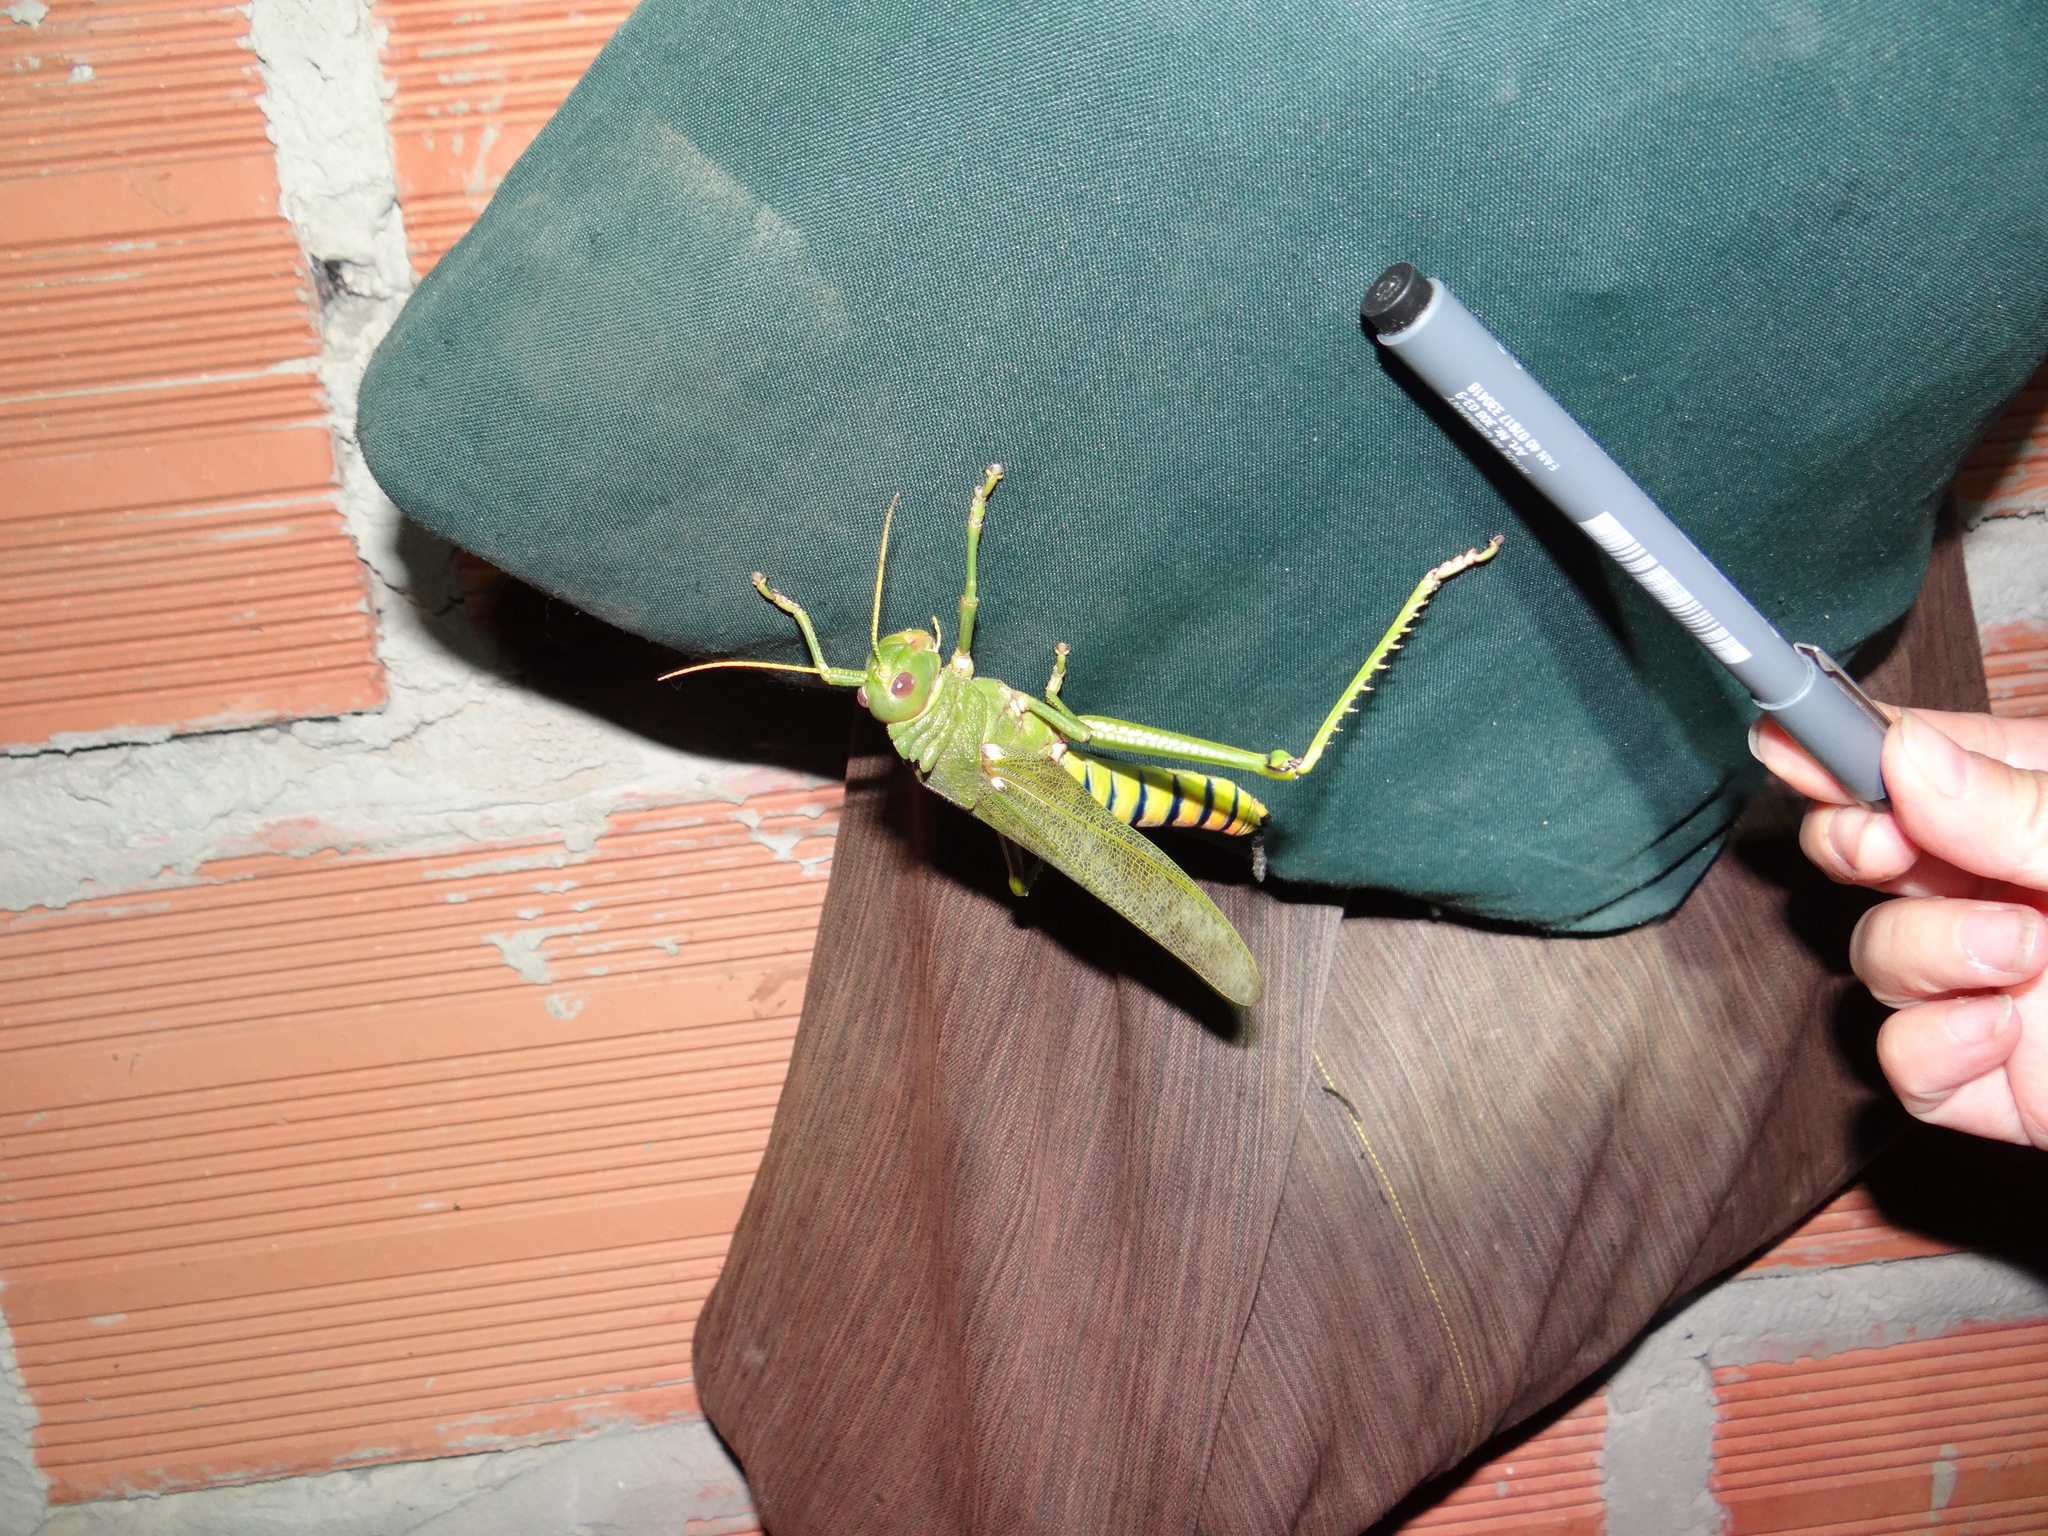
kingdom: Animalia
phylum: Arthropoda
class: Insecta
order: Orthoptera
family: Romaleidae
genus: Tropidacris
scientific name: Tropidacris collaris
